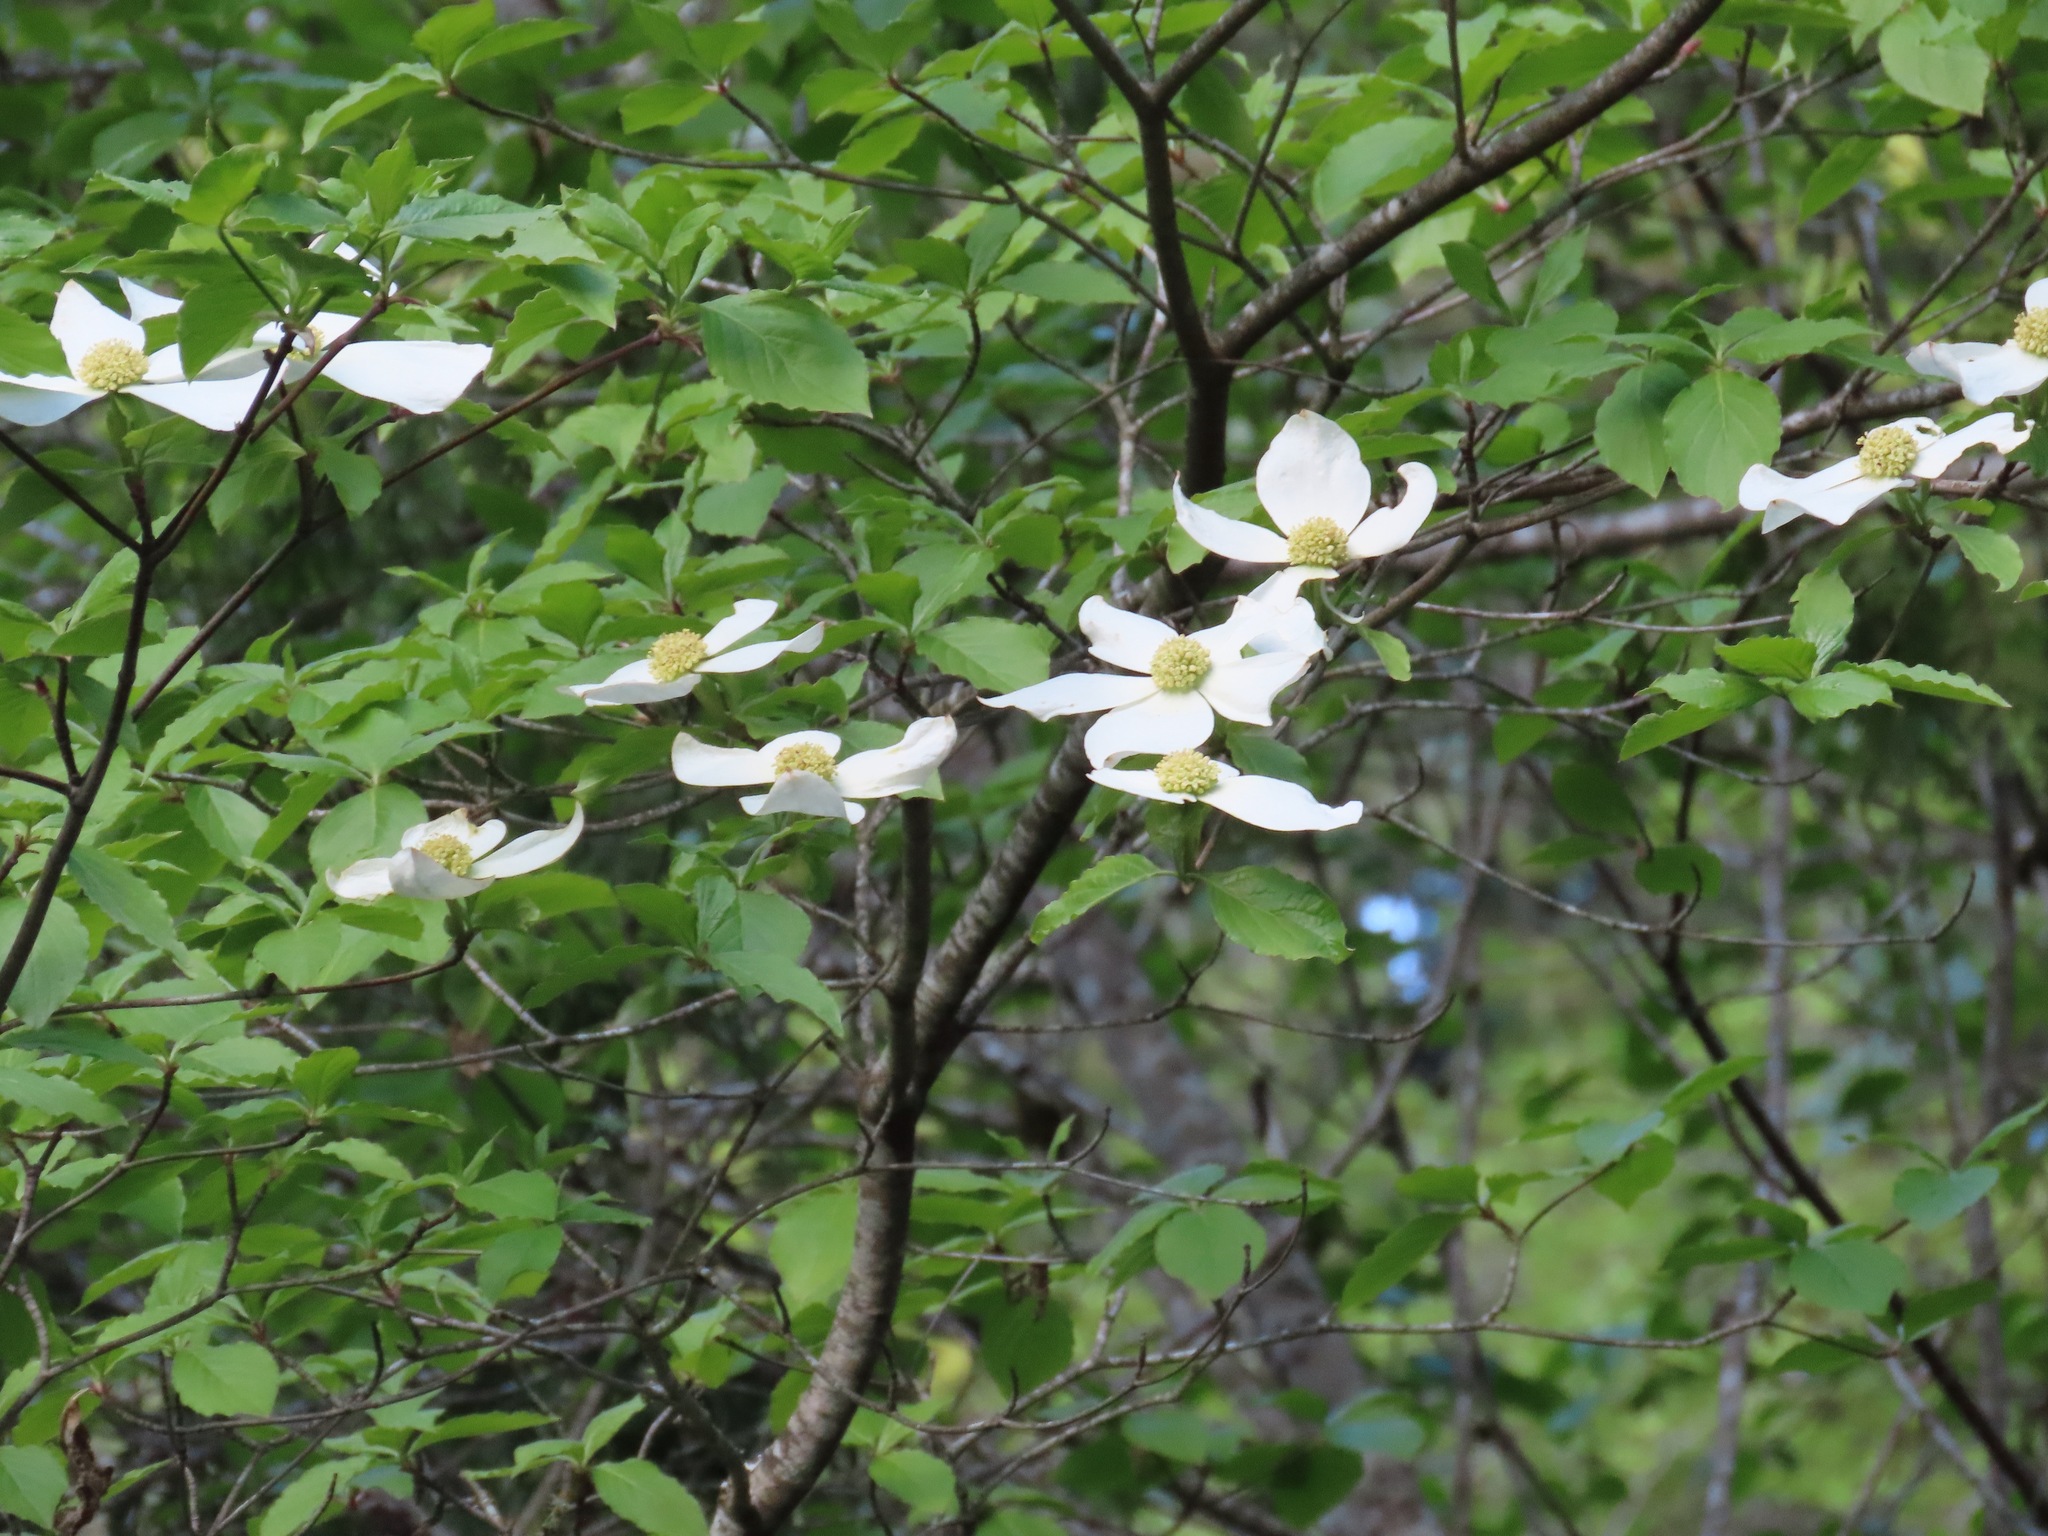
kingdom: Plantae
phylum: Tracheophyta
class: Magnoliopsida
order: Cornales
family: Cornaceae
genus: Cornus
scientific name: Cornus nuttallii
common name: Pacific dogwood
